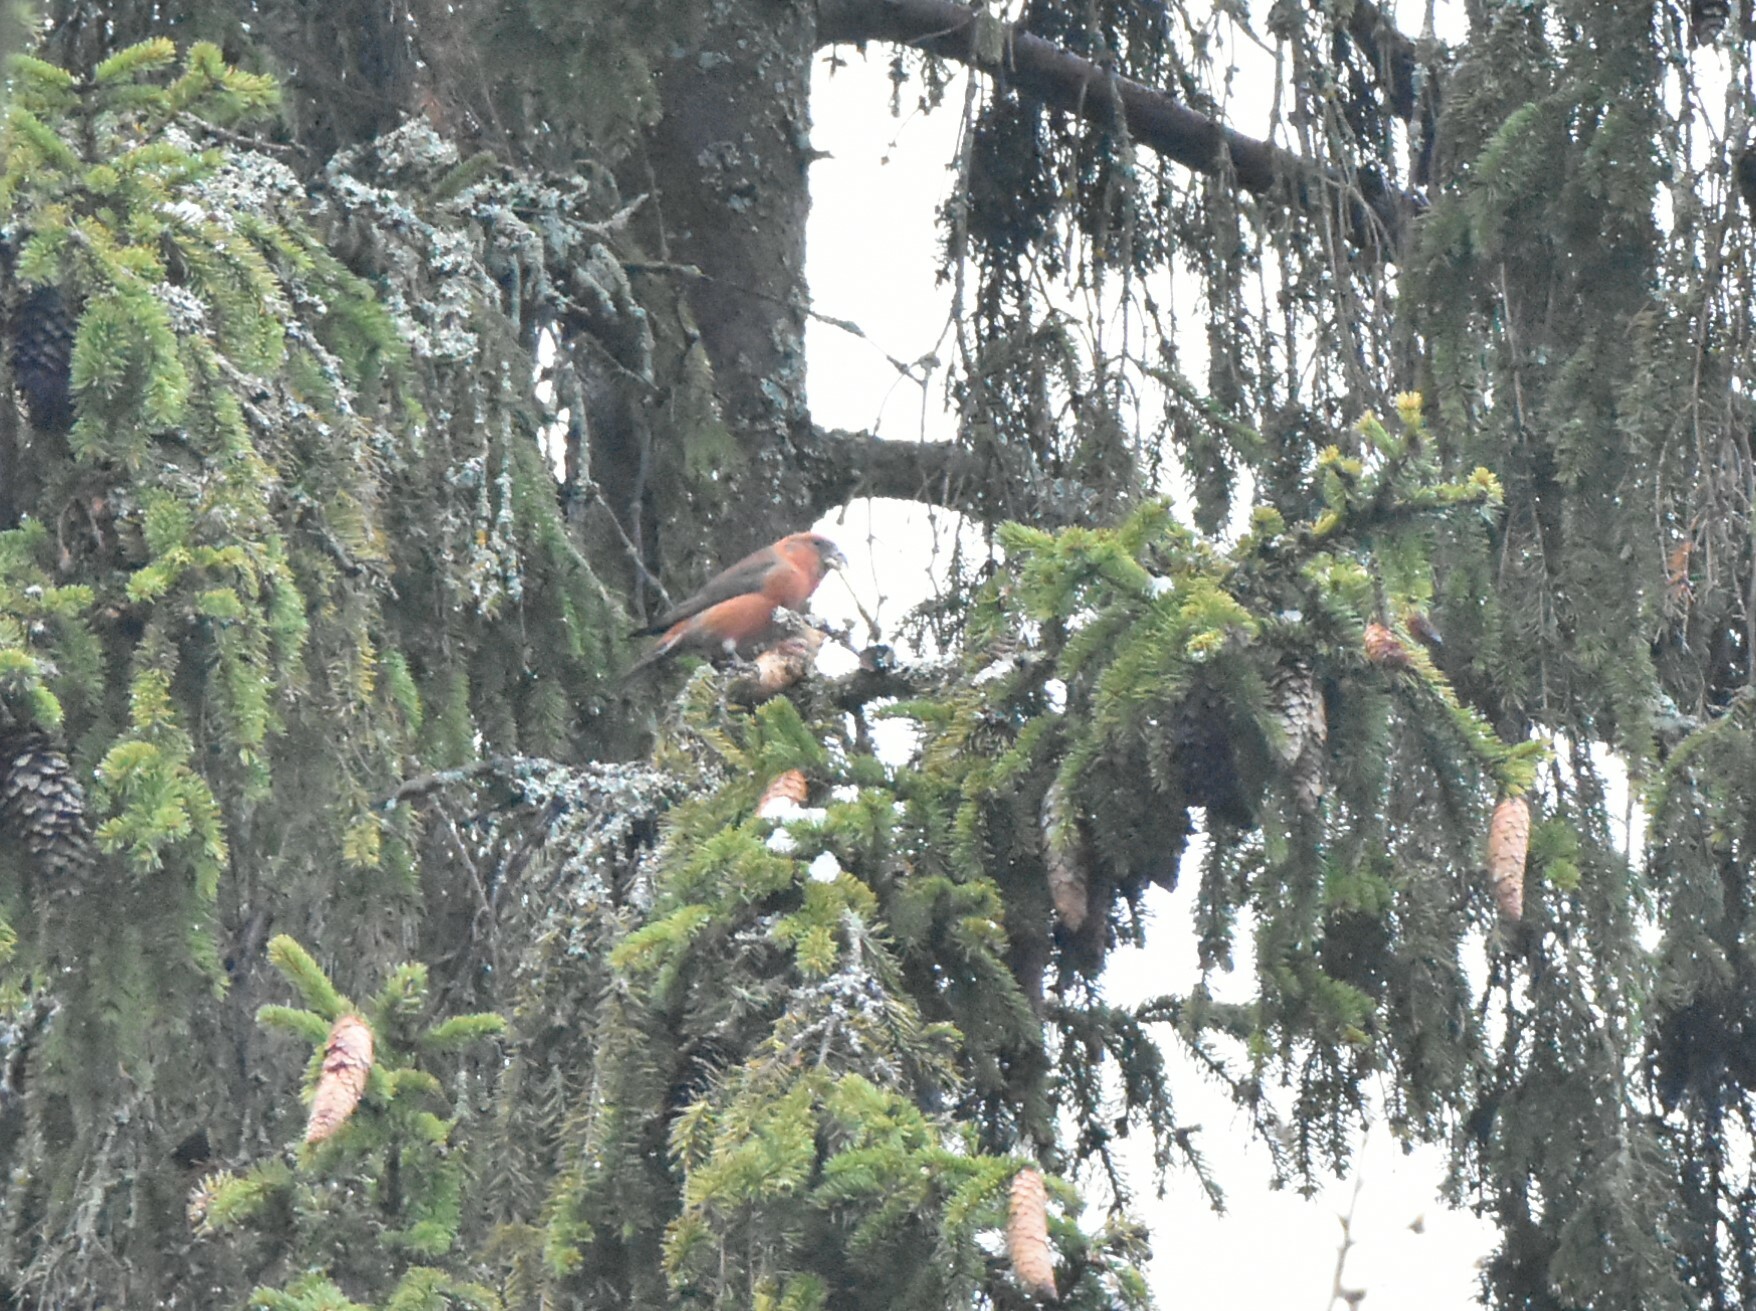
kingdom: Animalia
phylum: Chordata
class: Aves
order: Passeriformes
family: Fringillidae
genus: Loxia
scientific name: Loxia curvirostra
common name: Red crossbill
